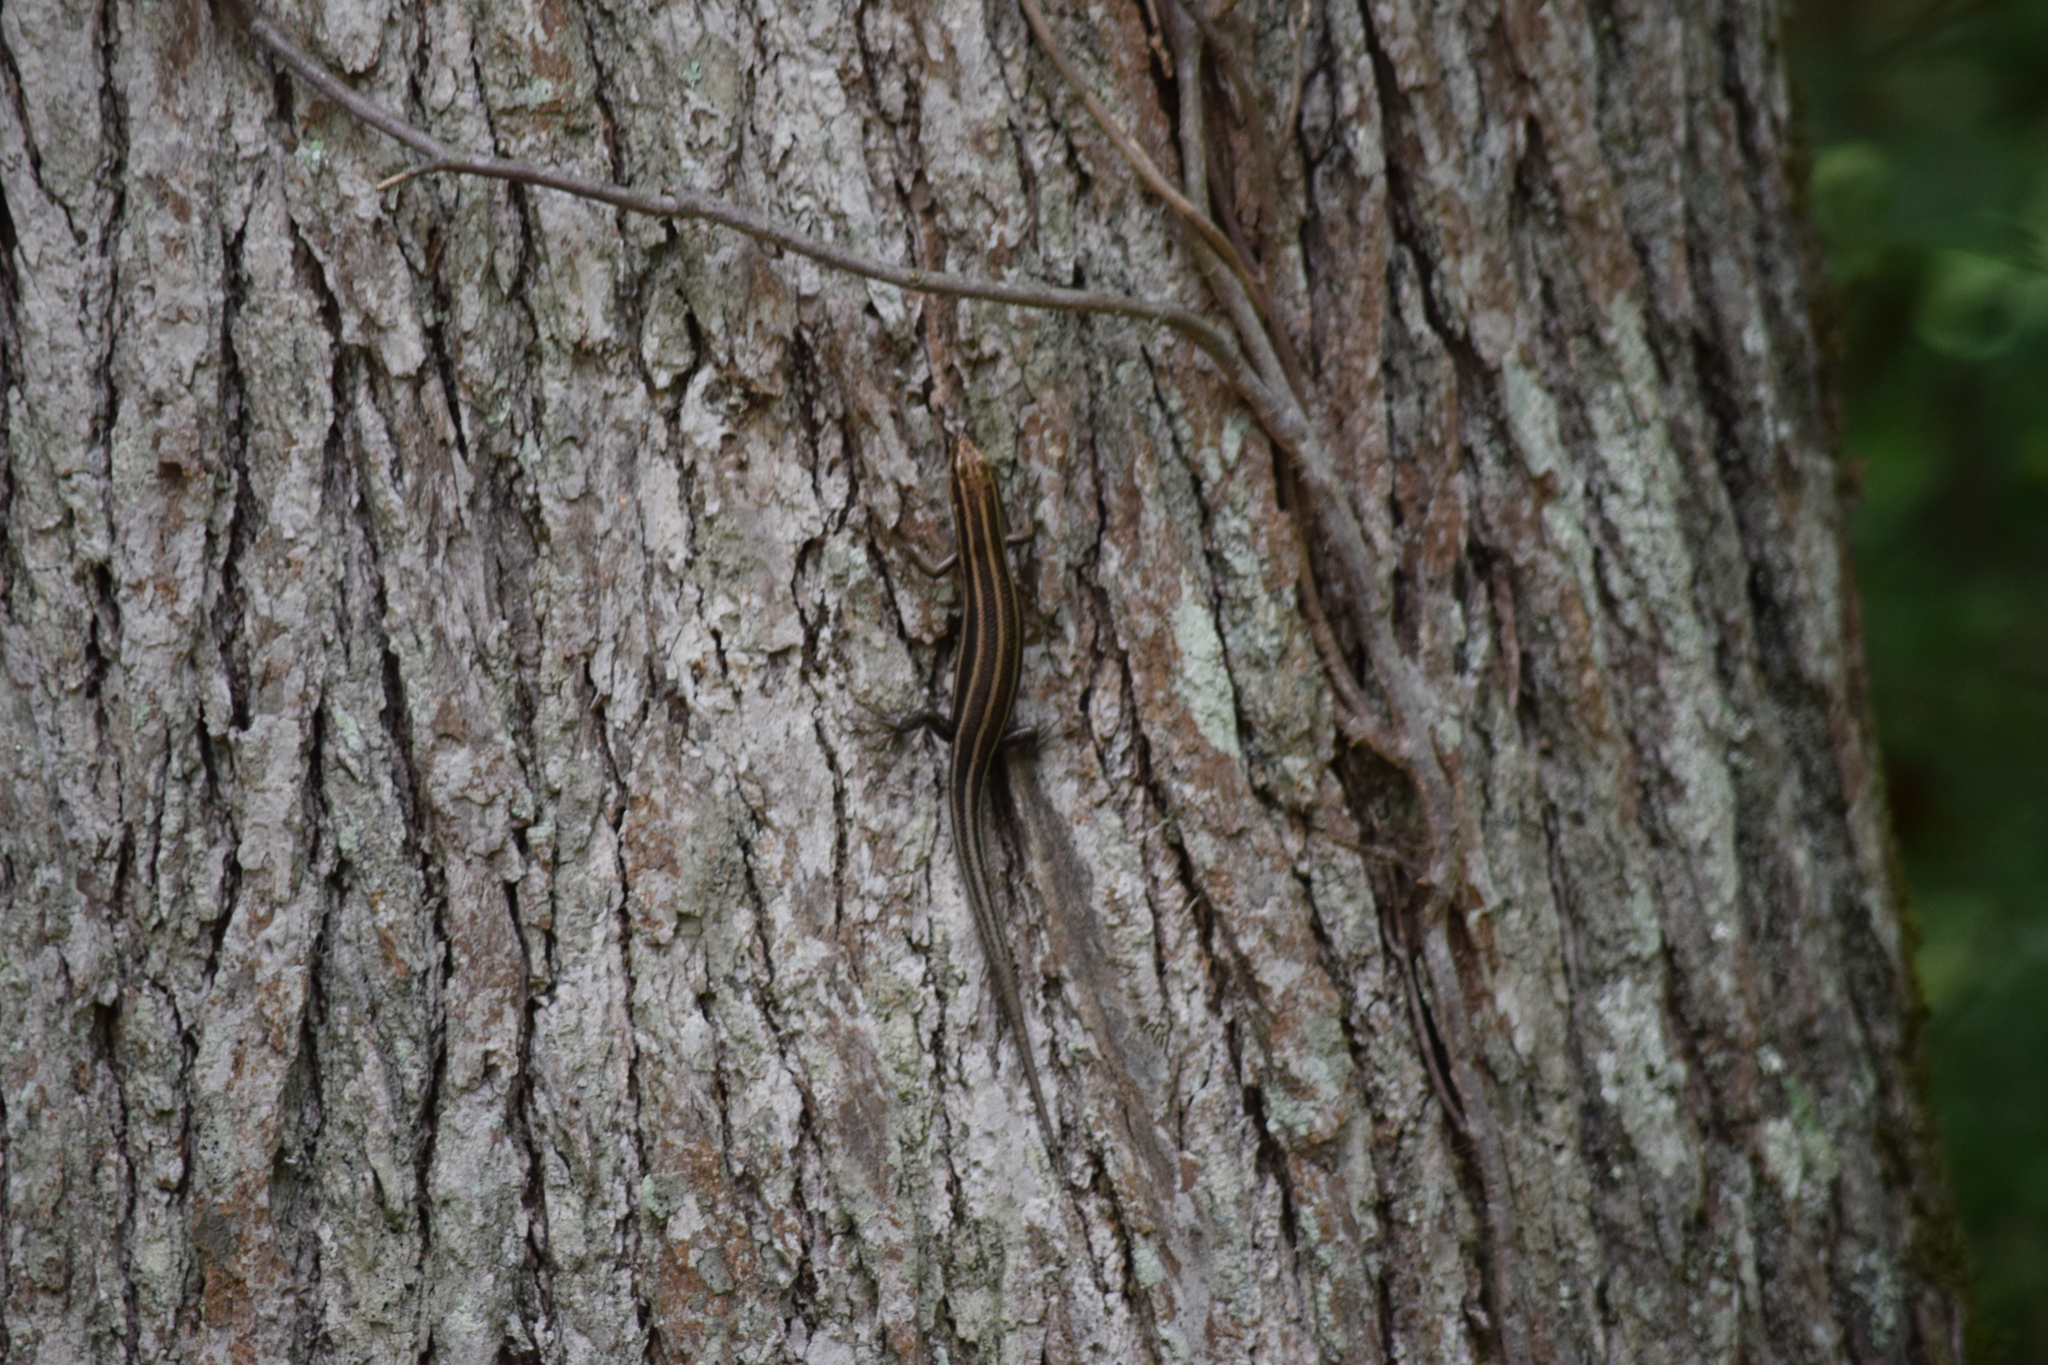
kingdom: Animalia
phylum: Chordata
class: Squamata
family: Scincidae
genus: Plestiodon
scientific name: Plestiodon fasciatus
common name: Five-lined skink
